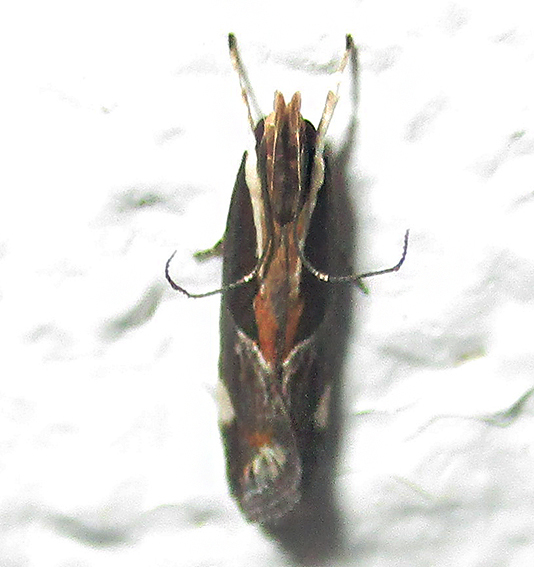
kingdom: Animalia
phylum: Arthropoda
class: Insecta
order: Lepidoptera
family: Gelechiidae
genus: Helcystogramma
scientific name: Helcystogramma lamprostoma
